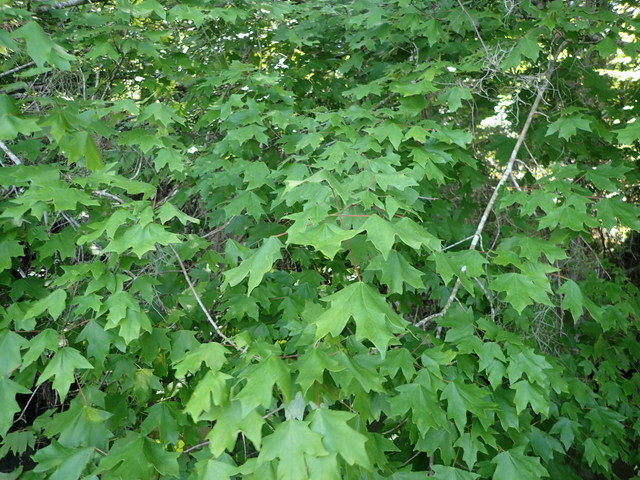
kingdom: Plantae
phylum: Tracheophyta
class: Magnoliopsida
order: Sapindales
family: Sapindaceae
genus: Acer
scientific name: Acer floridanum
